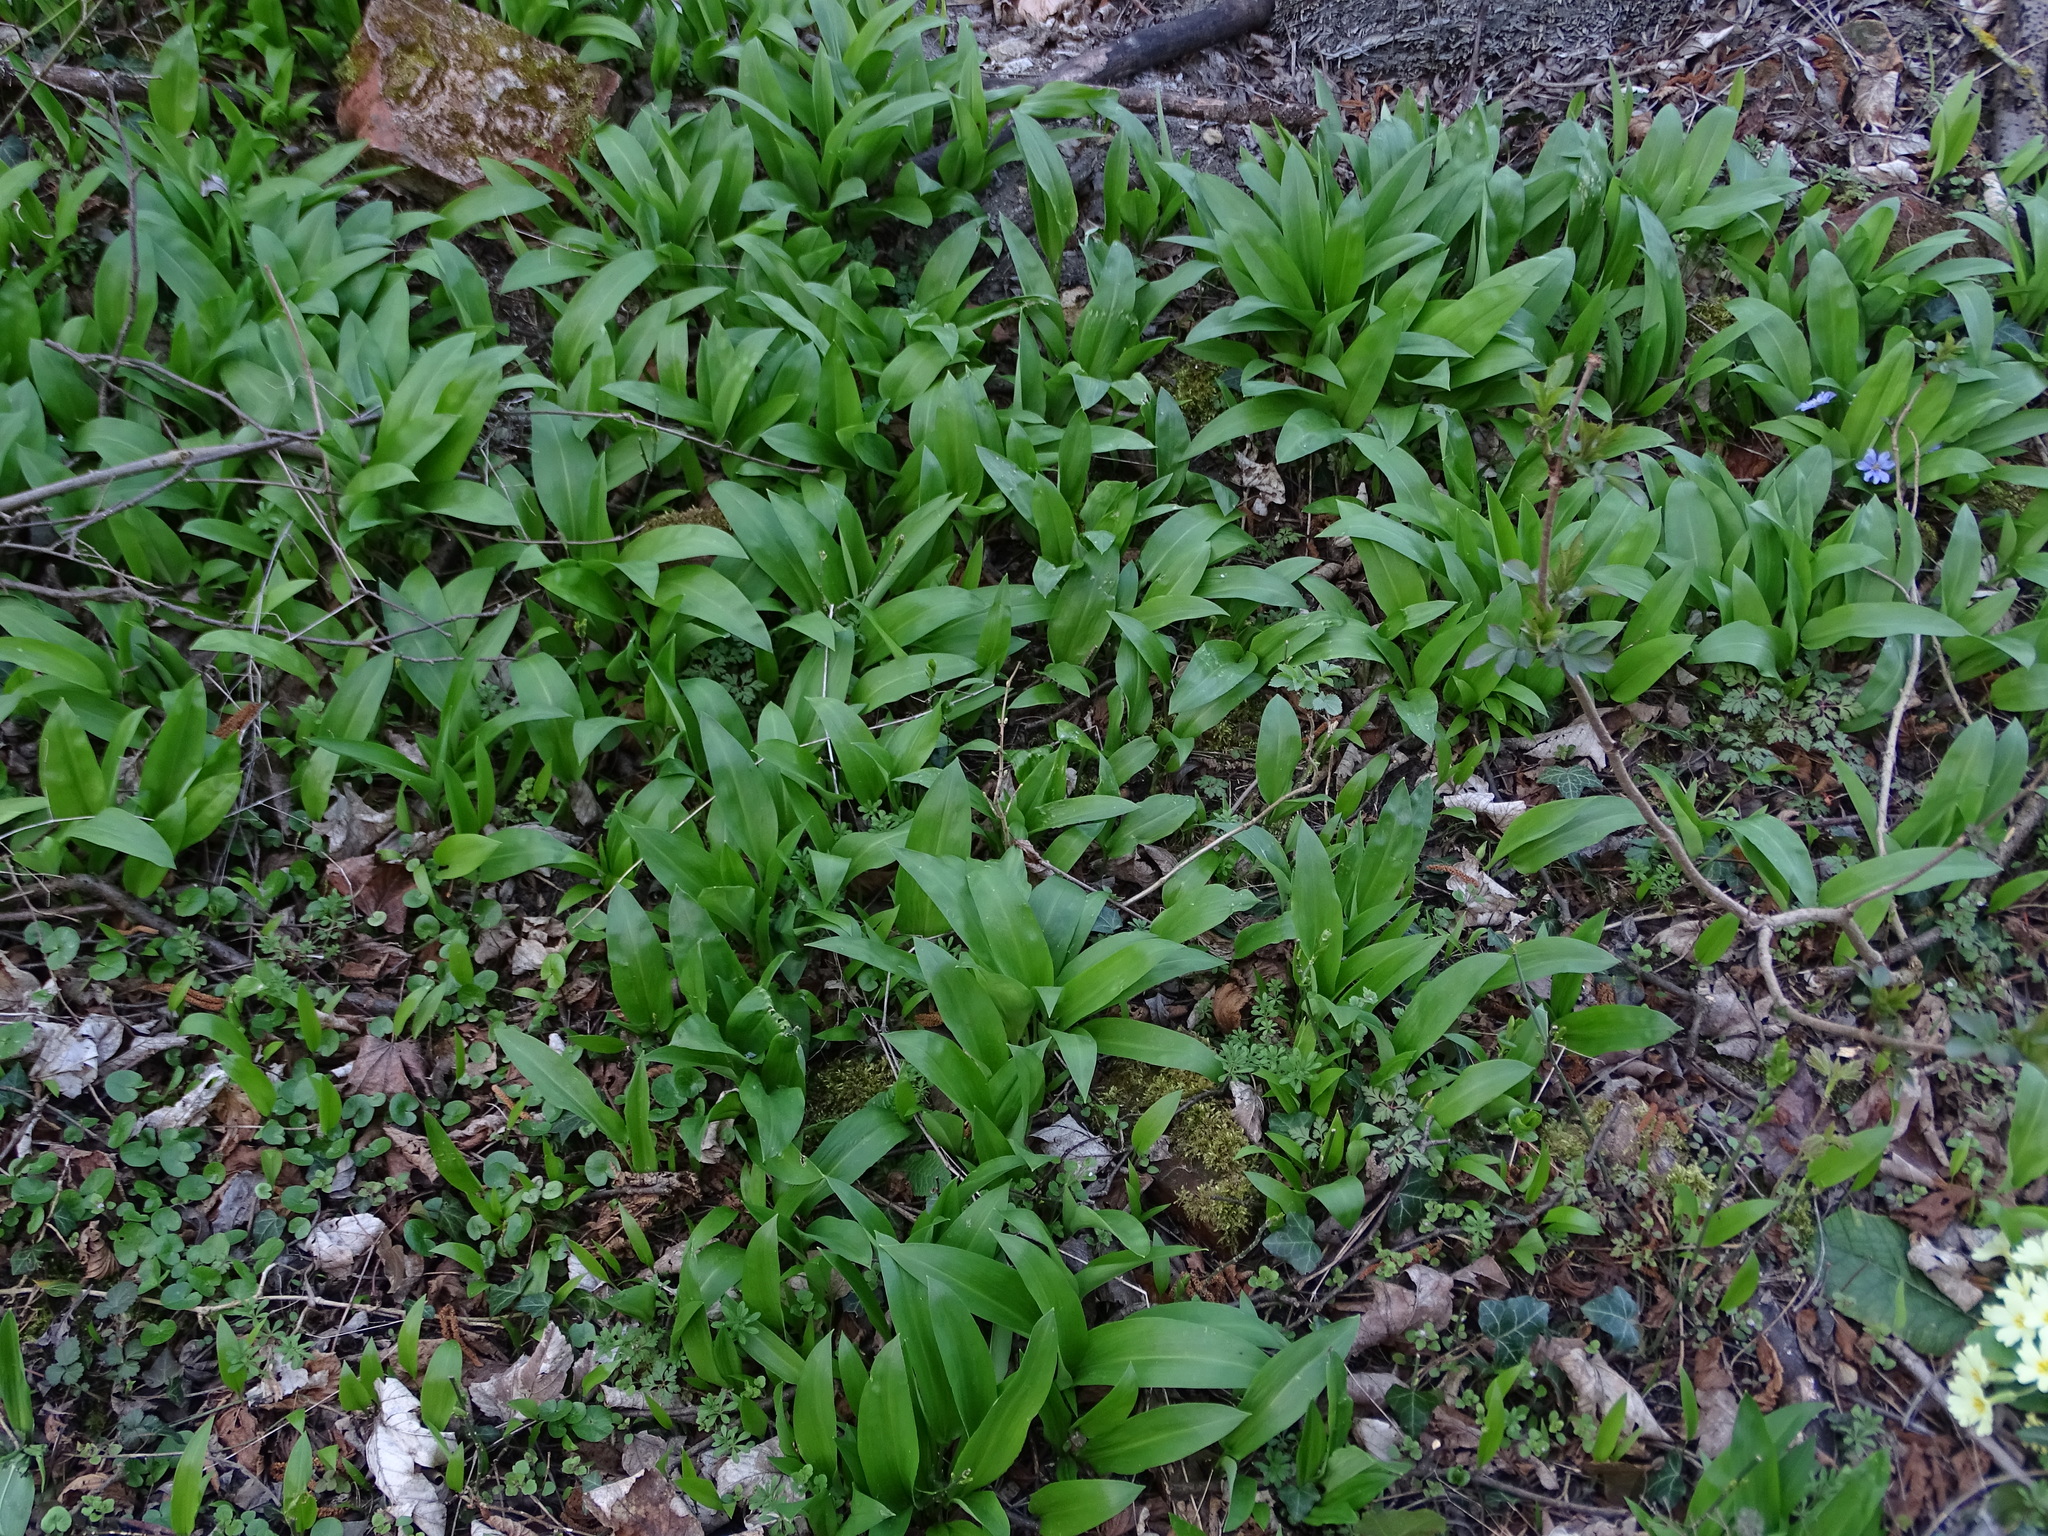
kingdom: Plantae
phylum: Tracheophyta
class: Liliopsida
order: Asparagales
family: Amaryllidaceae
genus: Allium
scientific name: Allium ursinum
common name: Ramsons
